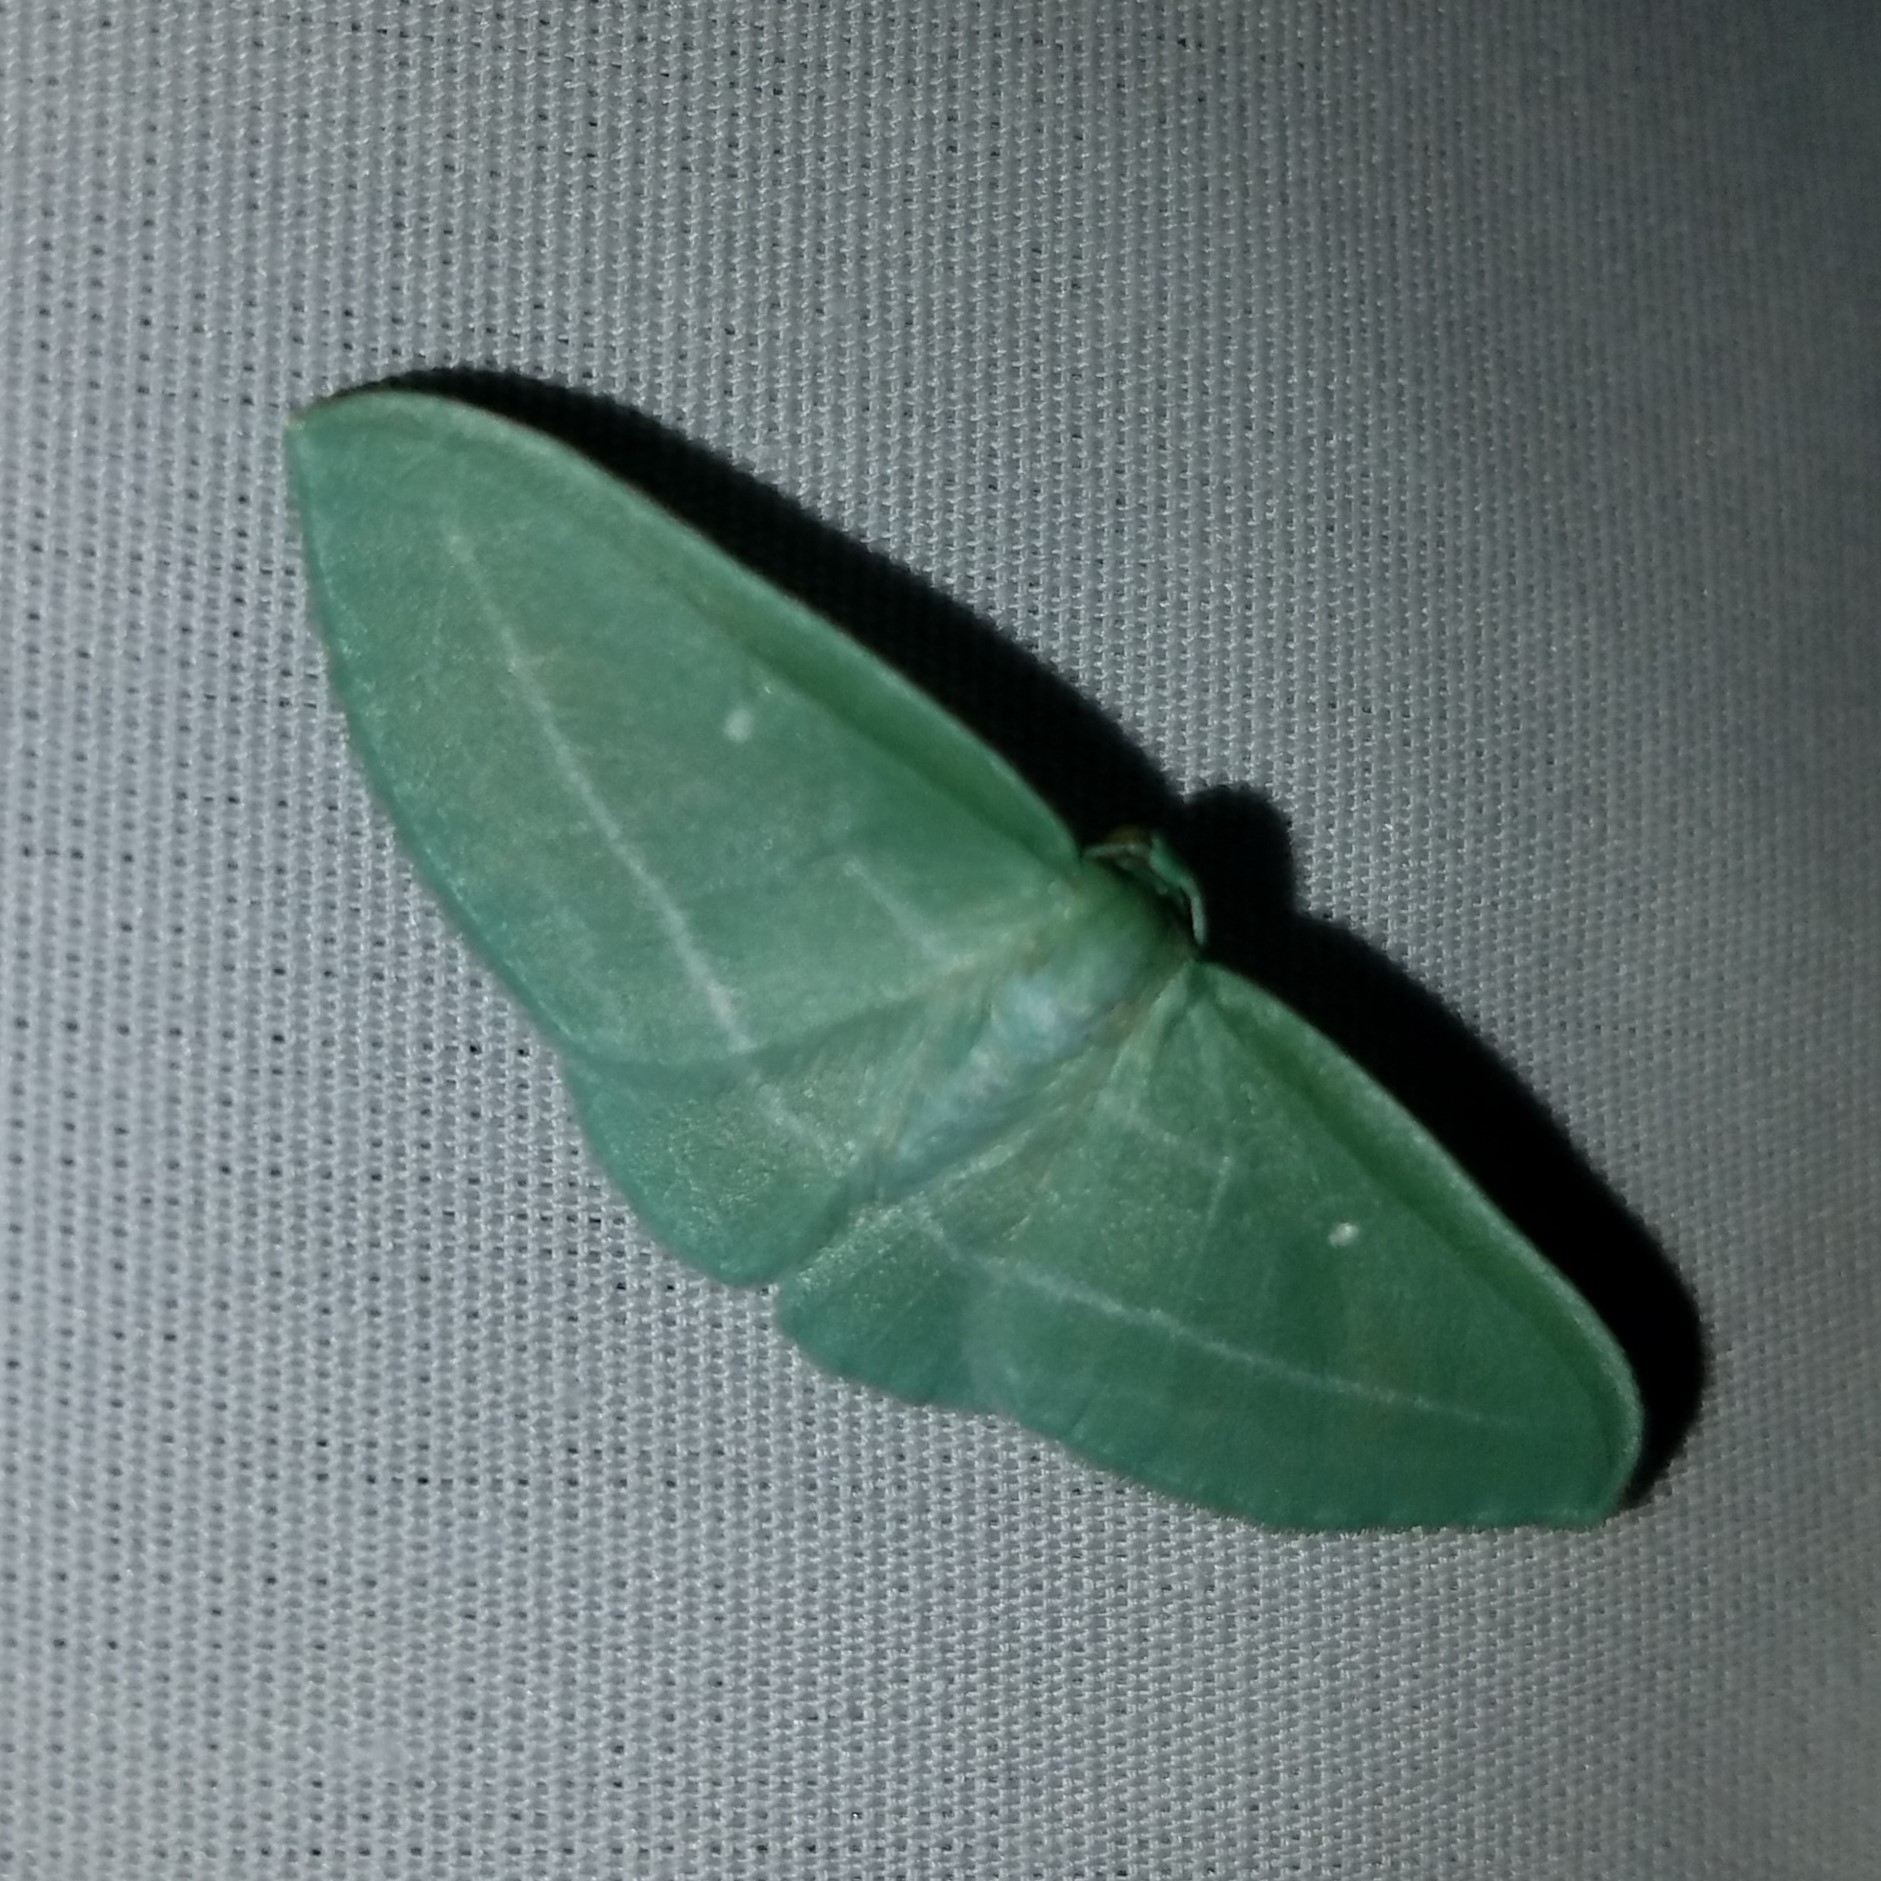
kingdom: Animalia
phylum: Arthropoda
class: Insecta
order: Lepidoptera
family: Geometridae
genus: Dyspteris
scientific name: Dyspteris abortivaria
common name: Bad-wing
